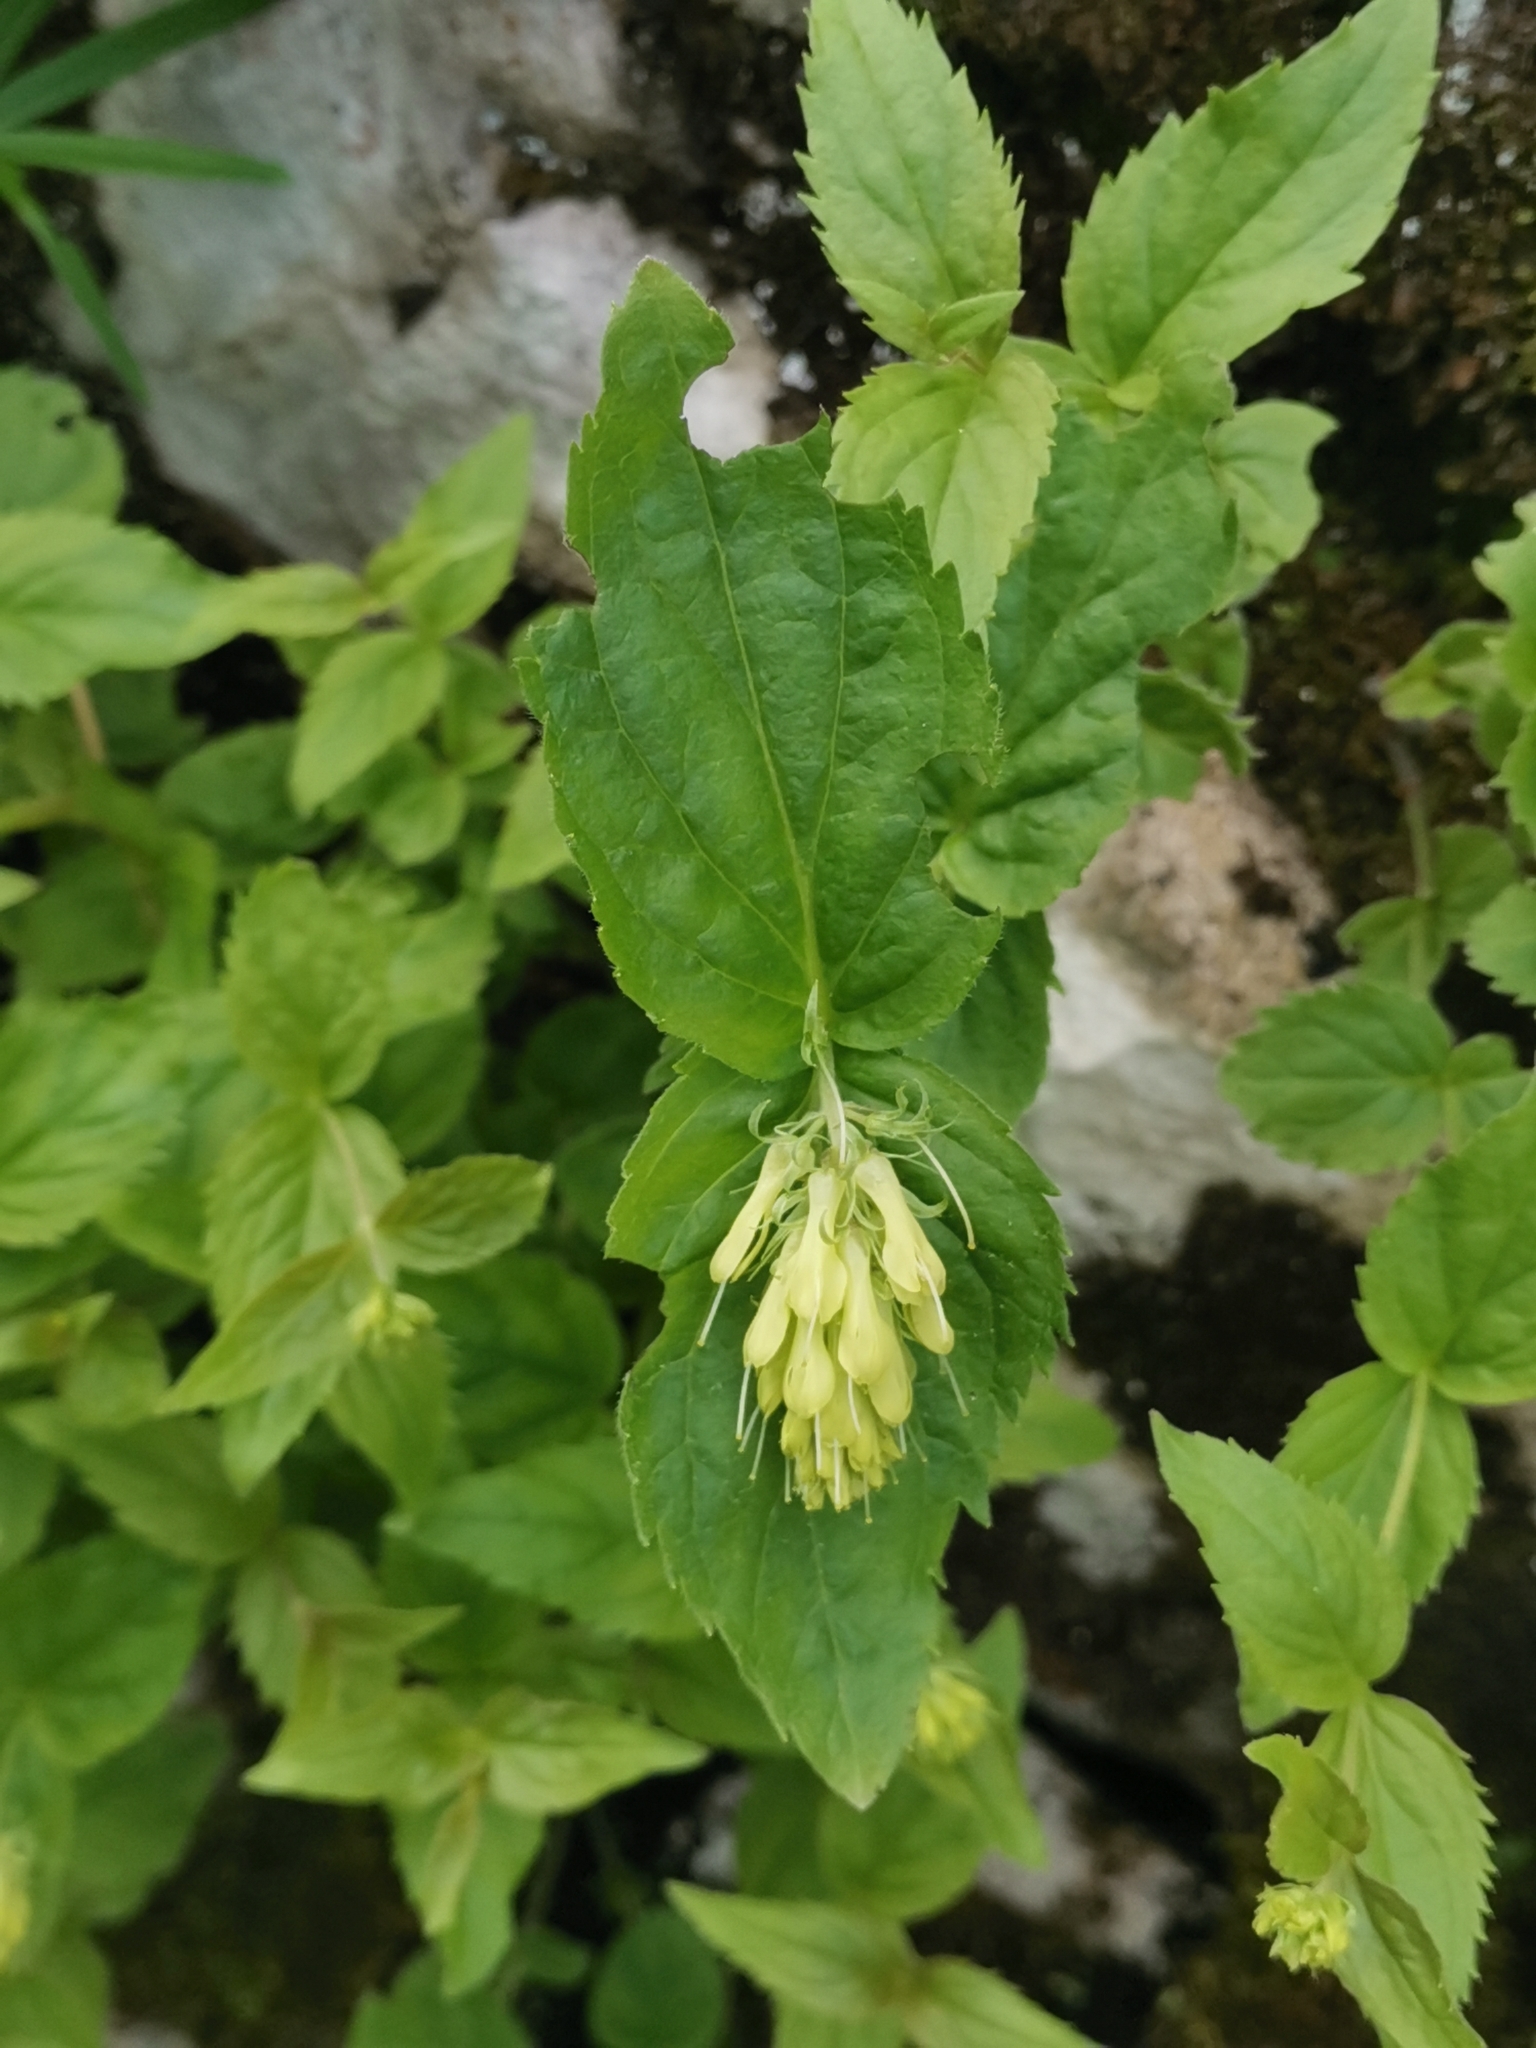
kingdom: Plantae
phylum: Tracheophyta
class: Magnoliopsida
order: Lamiales
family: Plantaginaceae
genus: Paederota
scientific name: Paederota lutea
